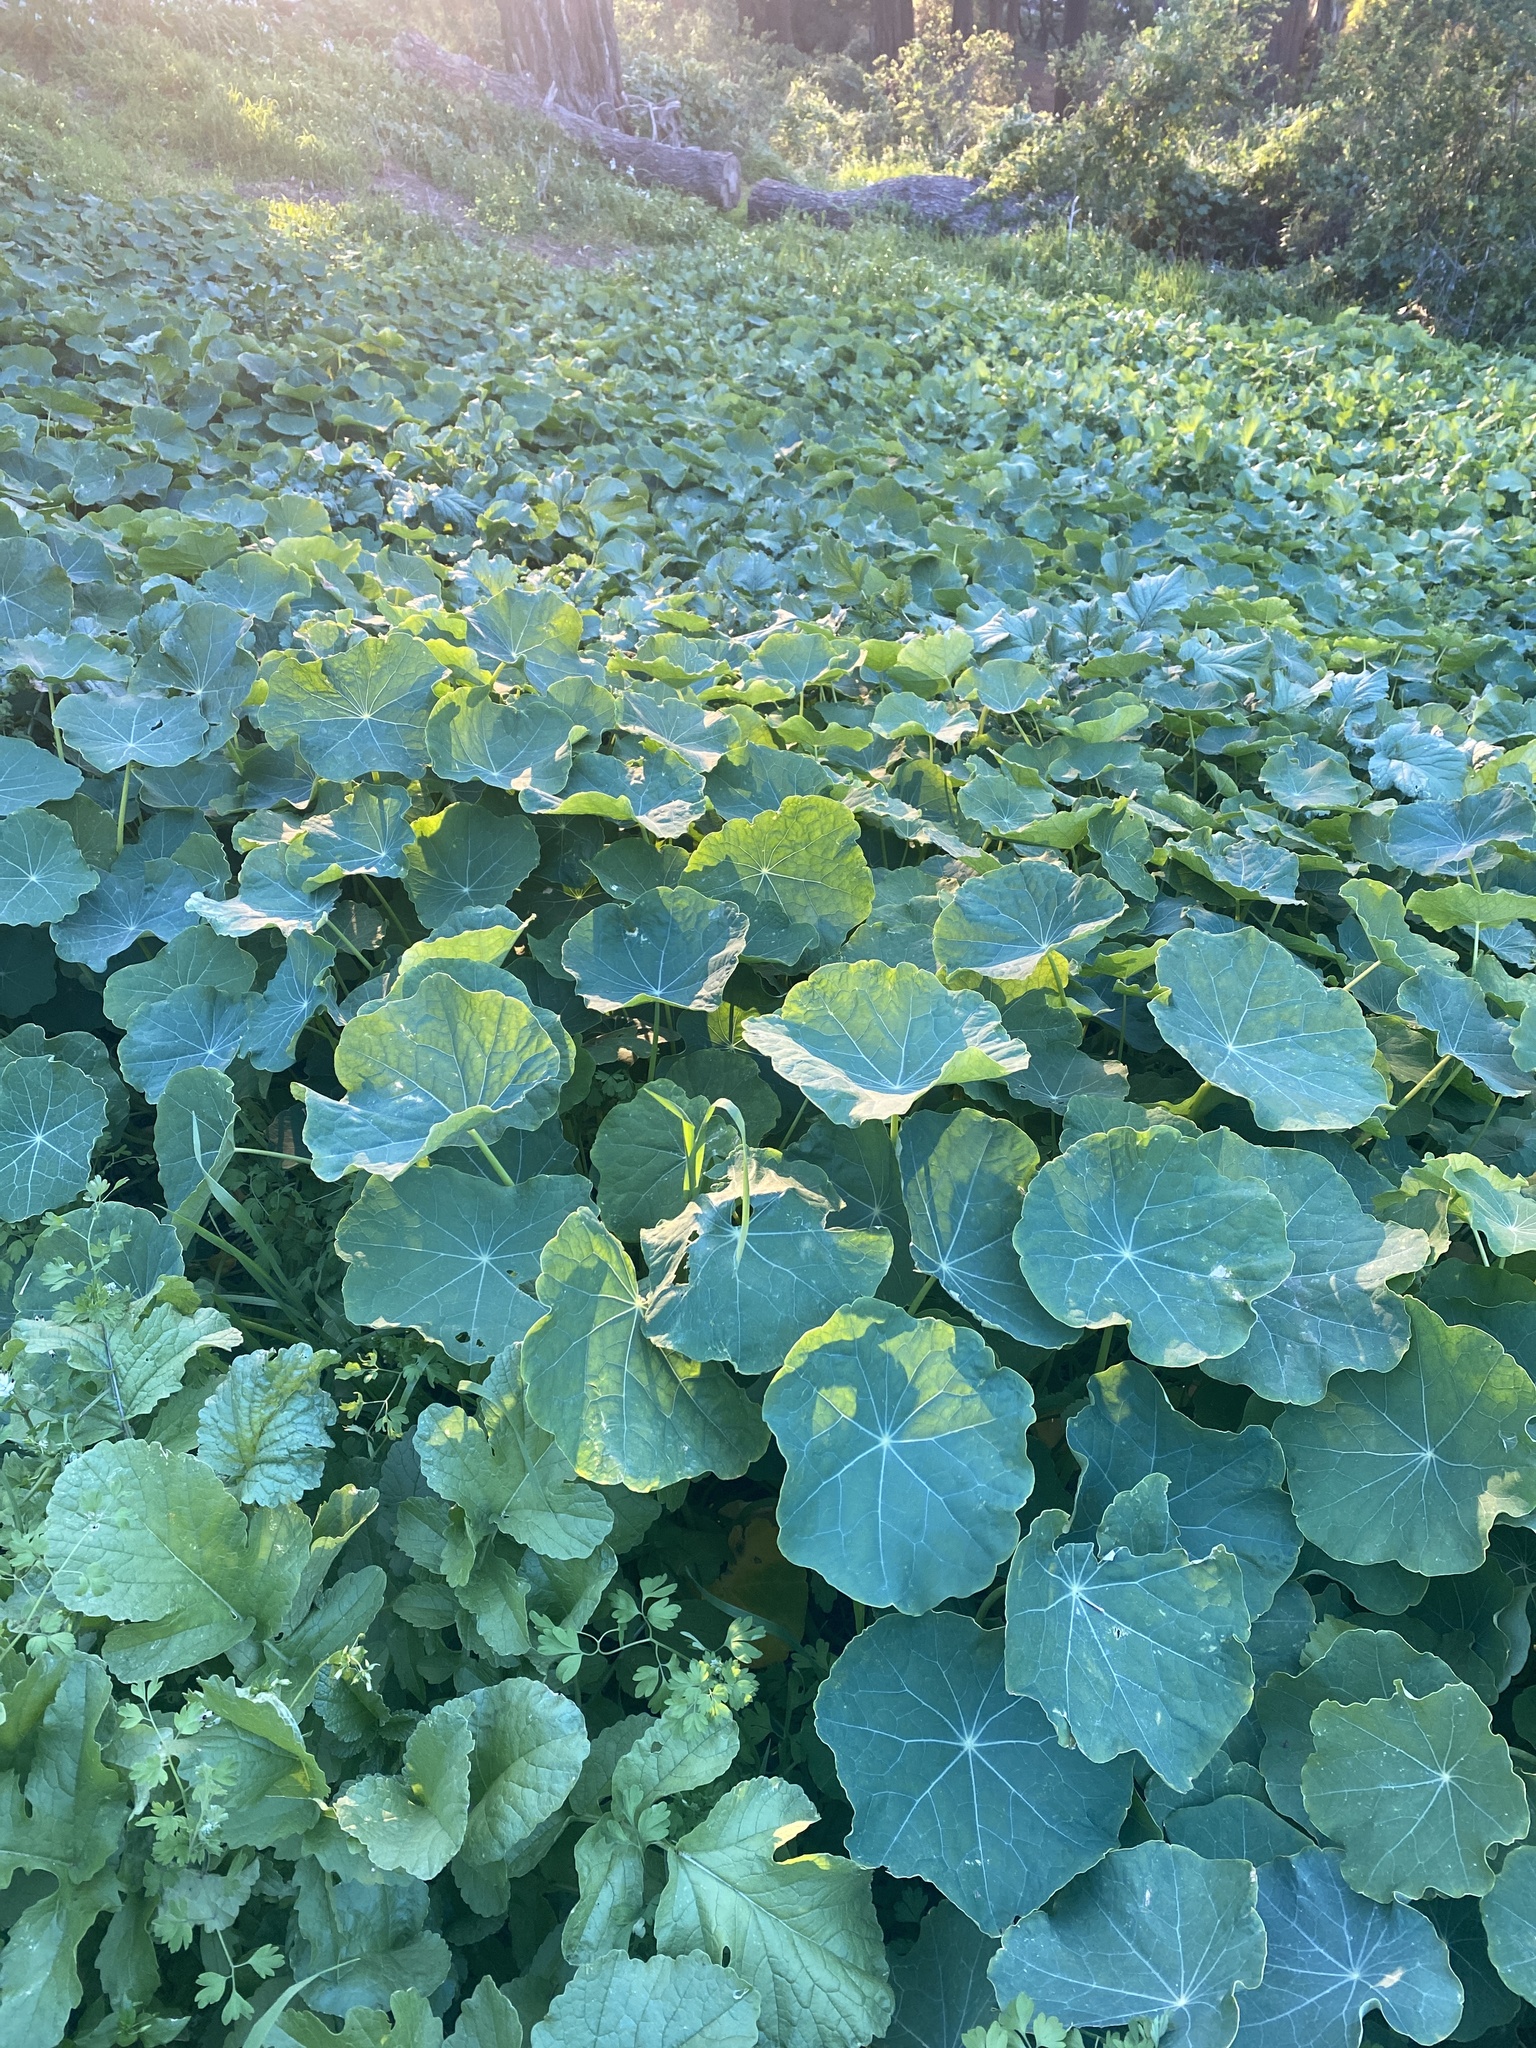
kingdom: Plantae
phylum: Tracheophyta
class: Magnoliopsida
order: Brassicales
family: Tropaeolaceae
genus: Tropaeolum
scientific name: Tropaeolum majus
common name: Nasturtium
